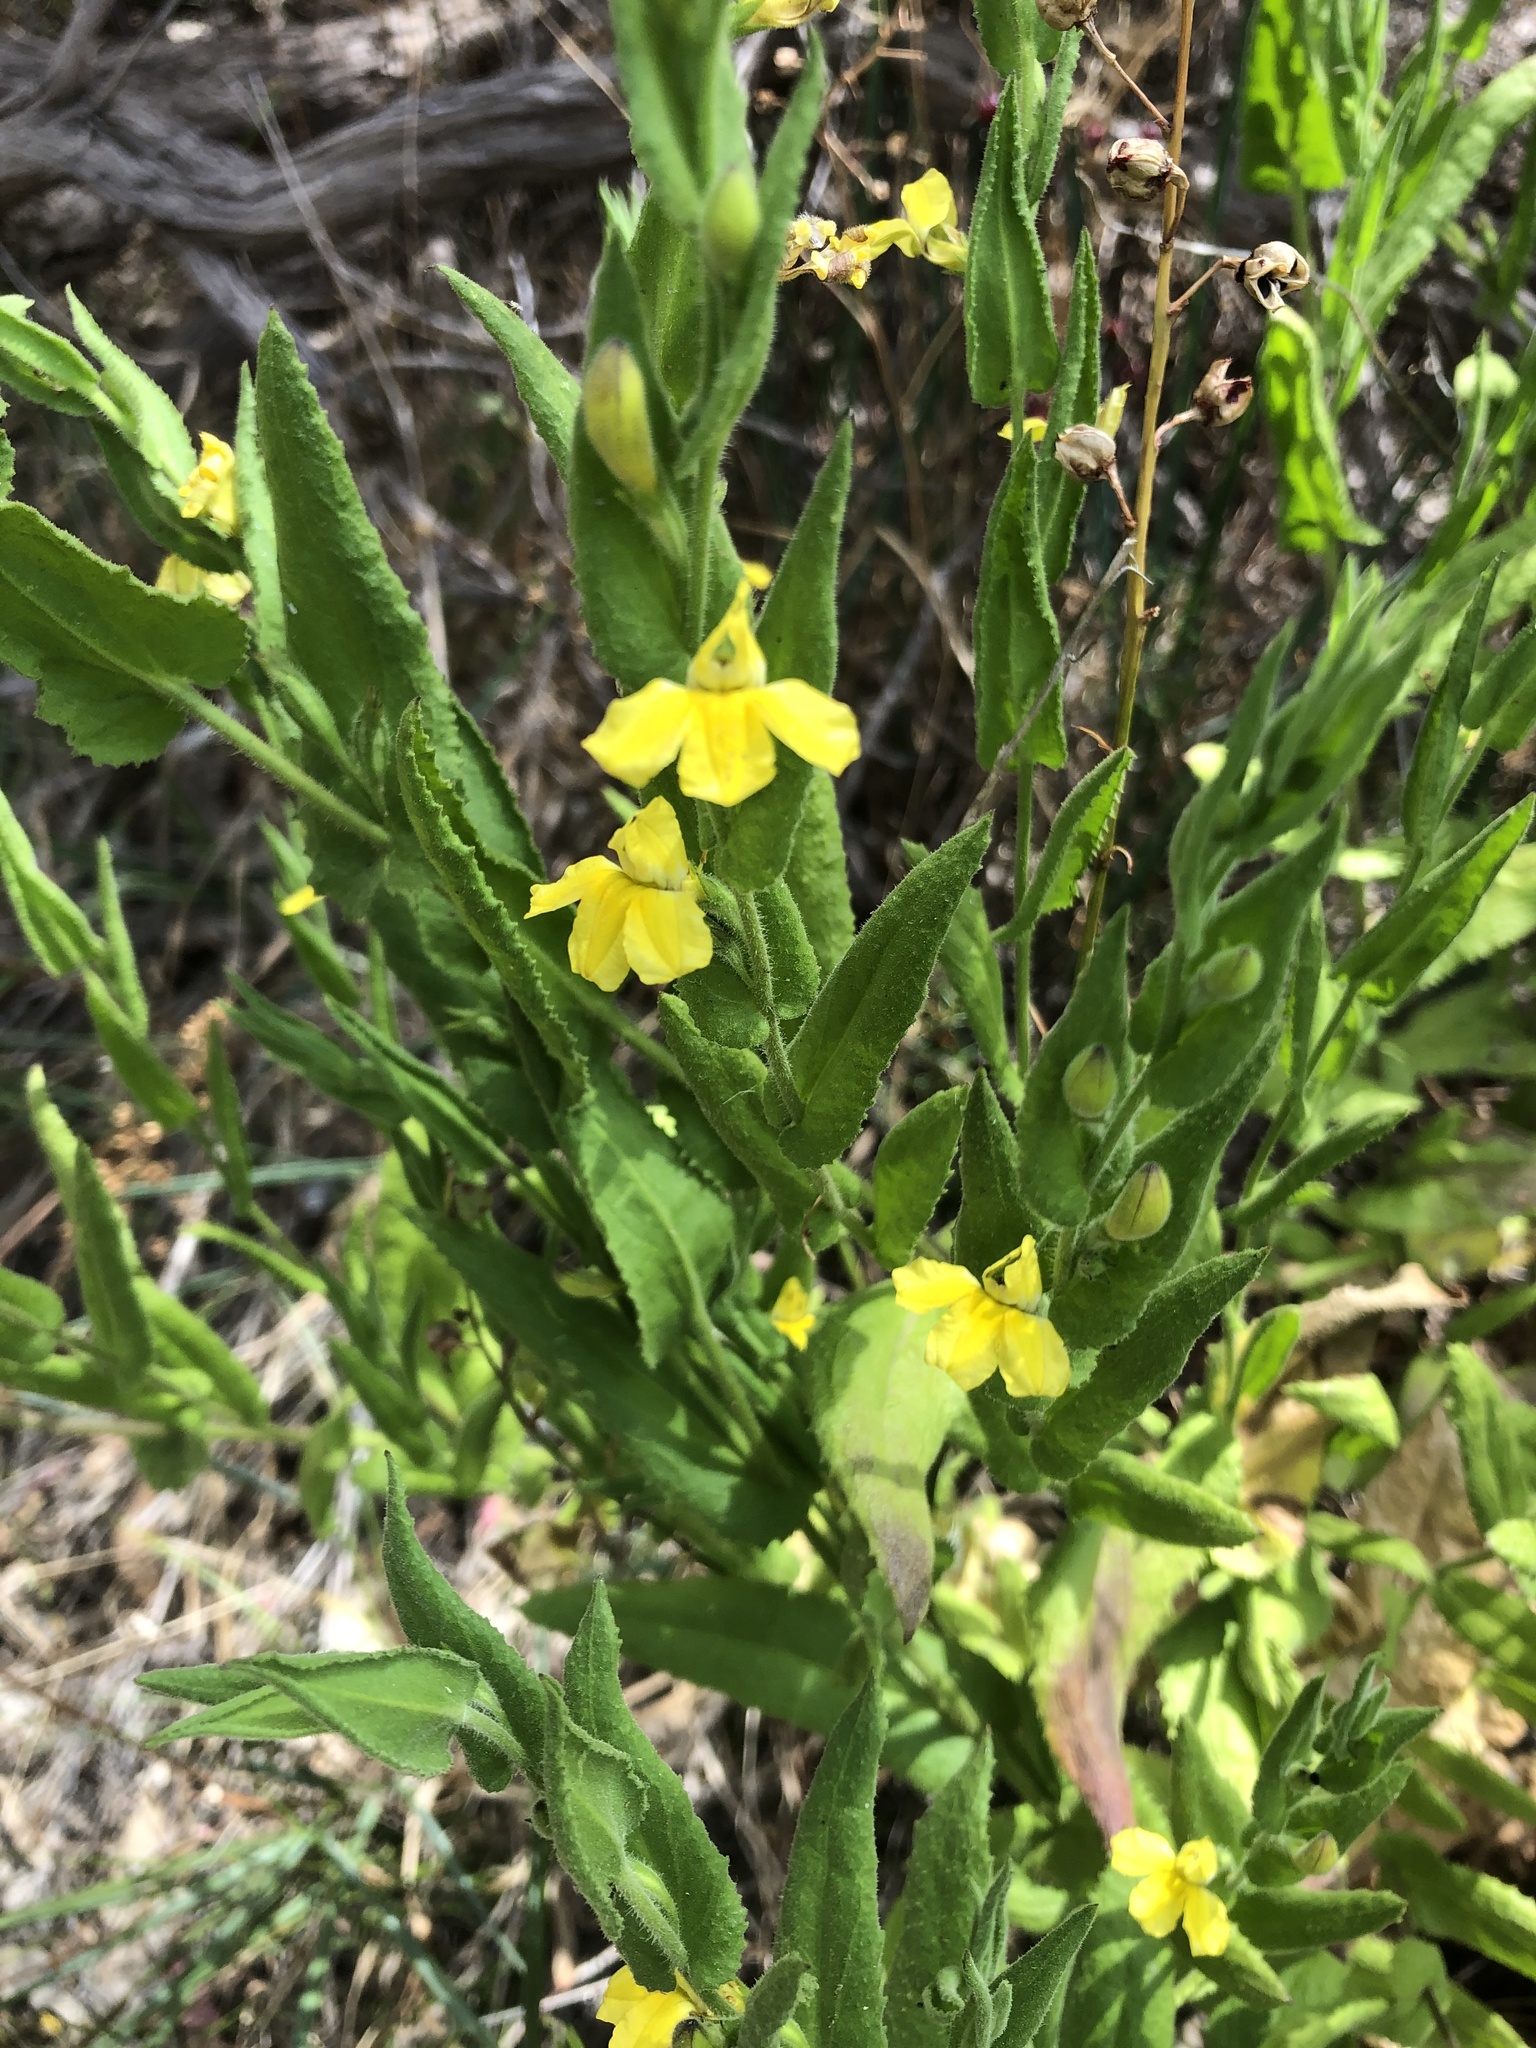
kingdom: Plantae
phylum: Tracheophyta
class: Magnoliopsida
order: Asterales
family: Goodeniaceae
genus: Goodenia
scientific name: Goodenia amplexans
